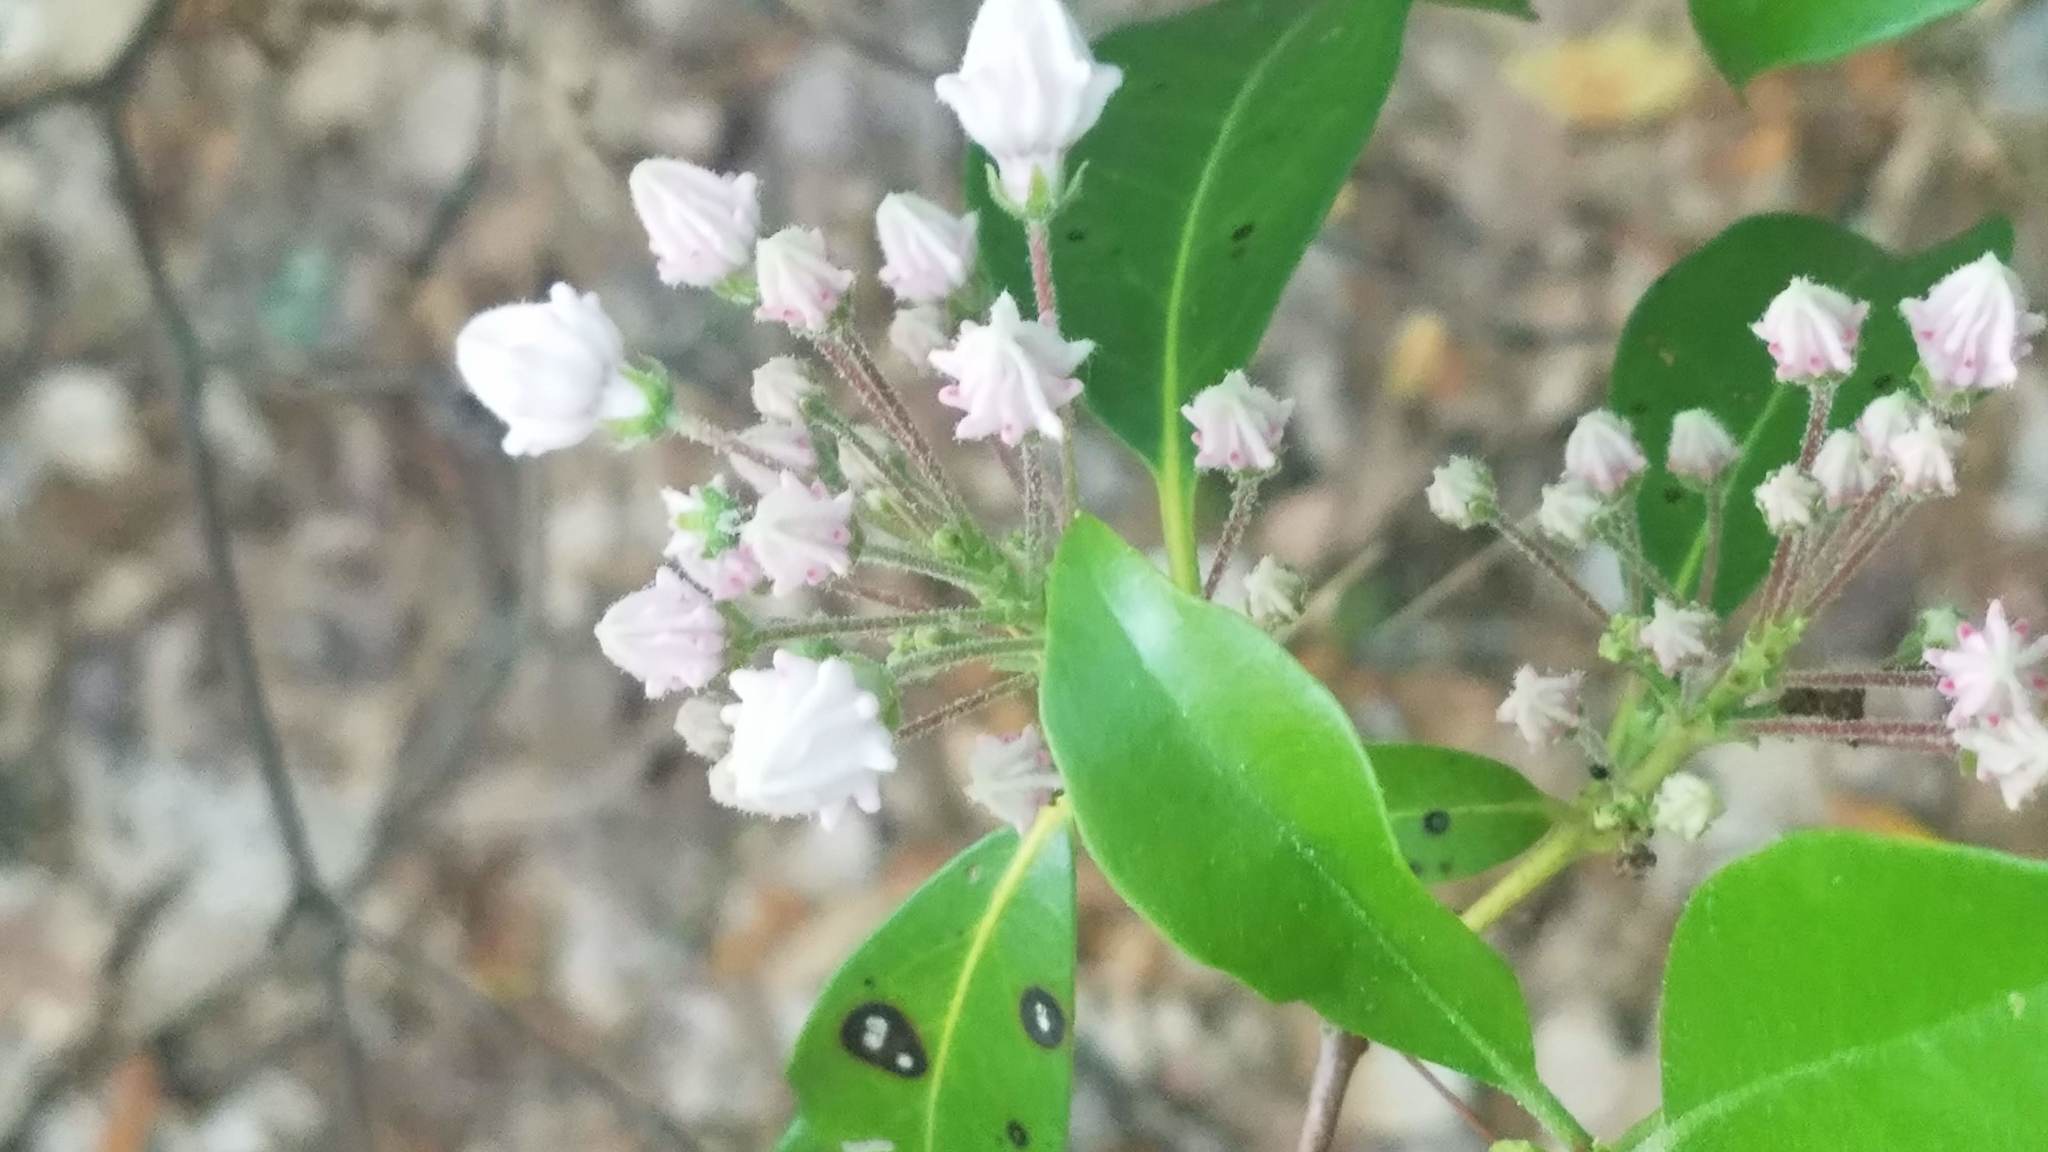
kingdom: Plantae
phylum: Tracheophyta
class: Magnoliopsida
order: Ericales
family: Ericaceae
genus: Kalmia
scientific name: Kalmia latifolia
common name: Mountain-laurel
